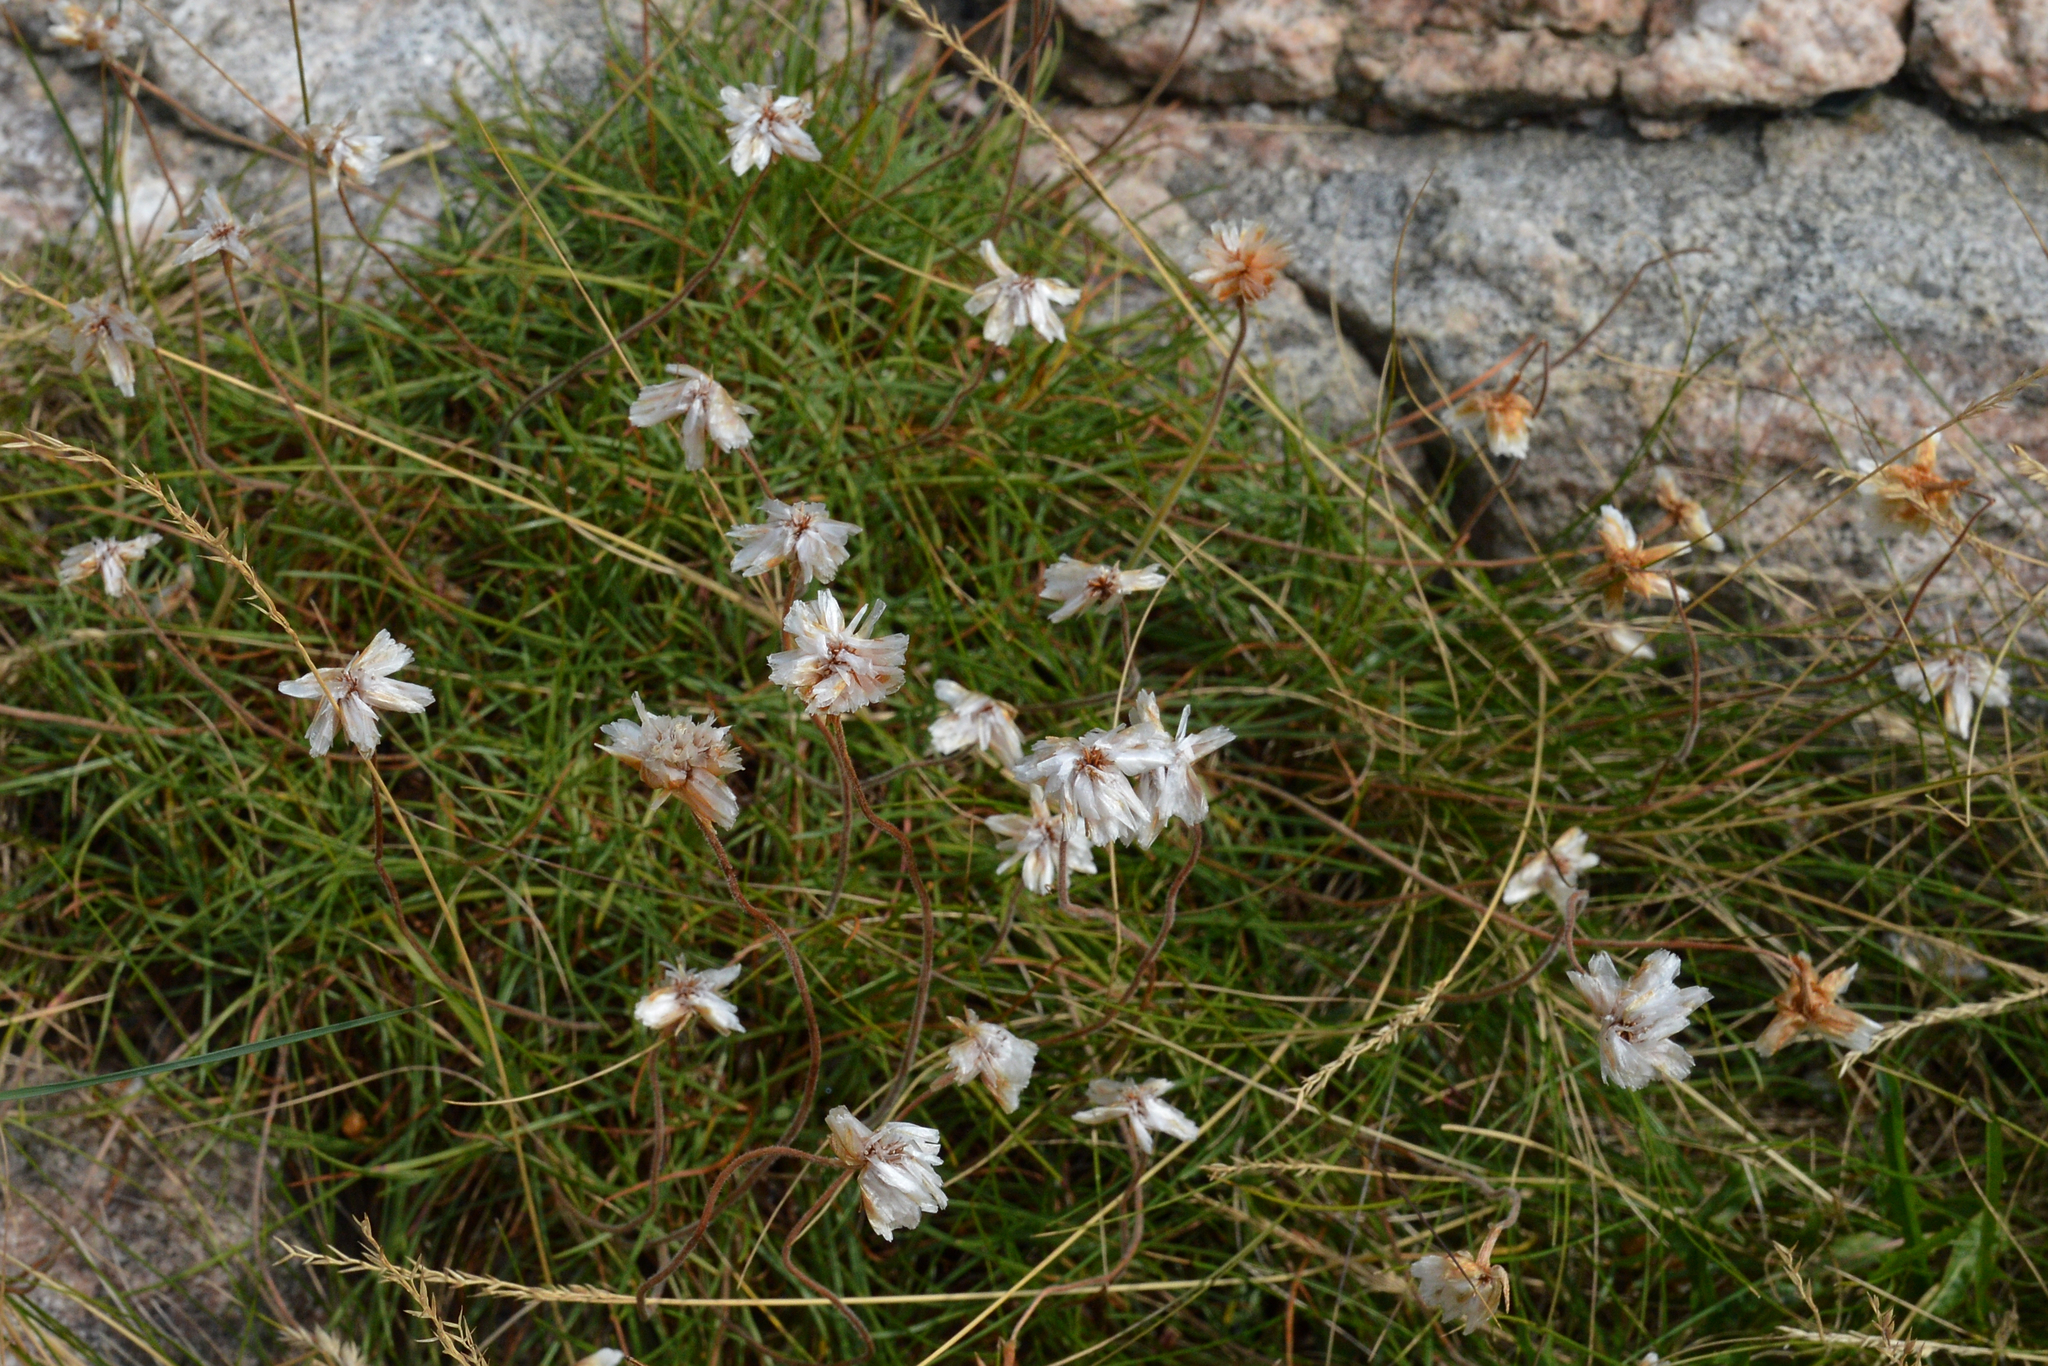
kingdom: Plantae
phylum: Tracheophyta
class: Magnoliopsida
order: Caryophyllales
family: Plumbaginaceae
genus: Armeria
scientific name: Armeria maritima
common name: Thrift
